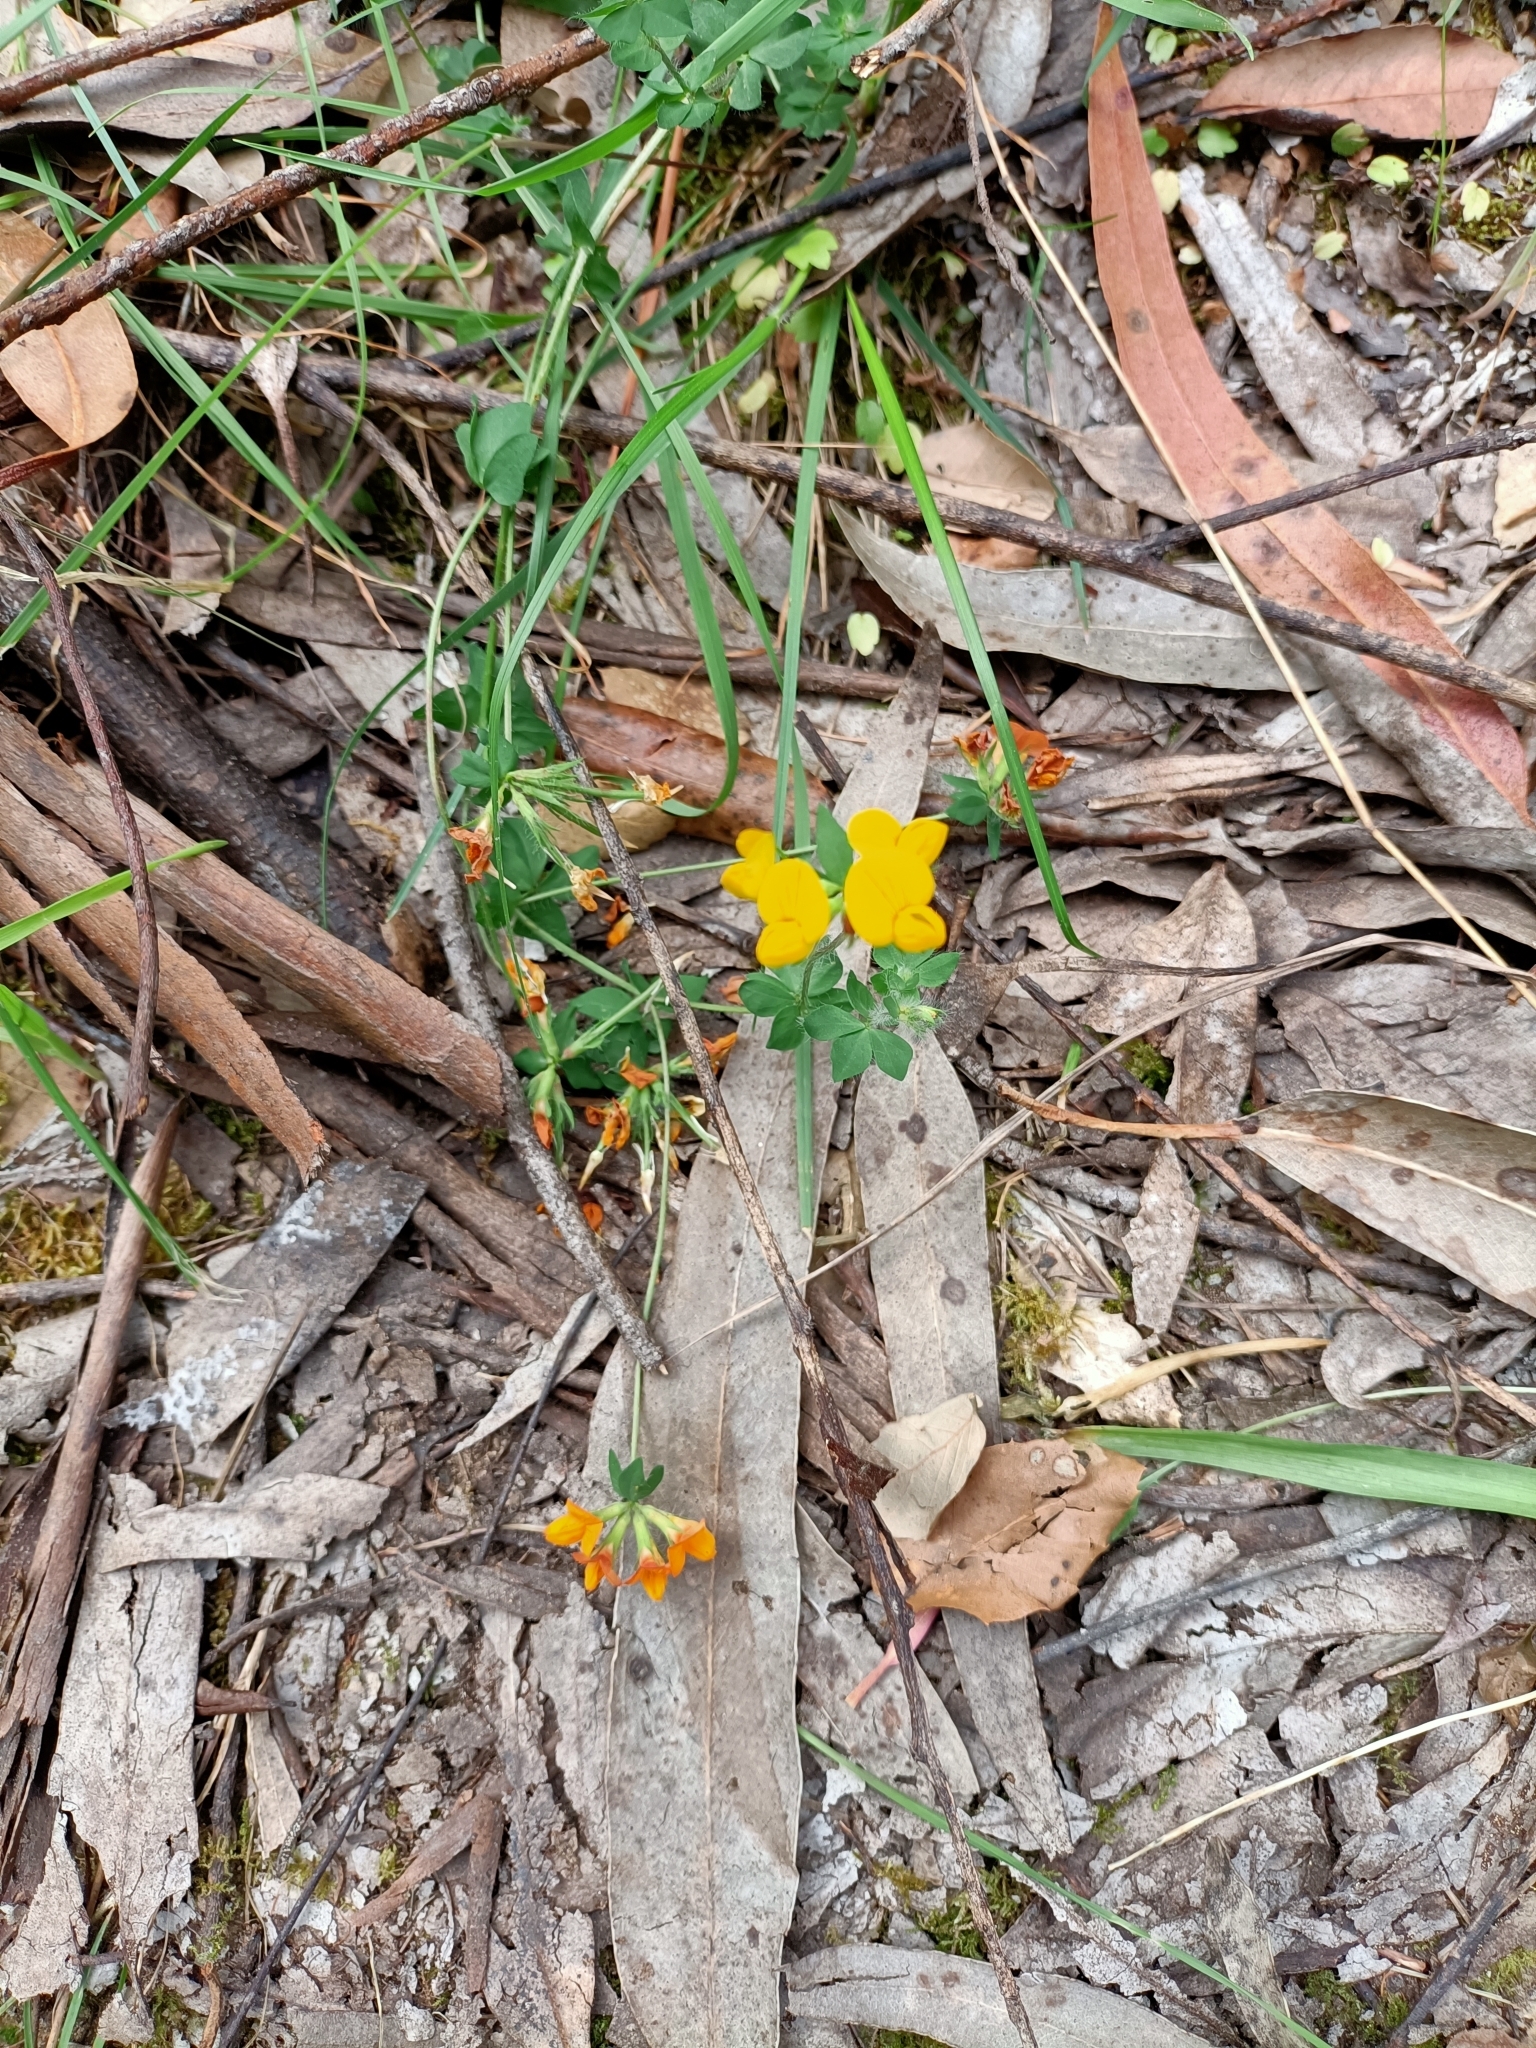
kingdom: Plantae
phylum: Tracheophyta
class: Magnoliopsida
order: Fabales
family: Fabaceae
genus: Lotus
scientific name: Lotus pedunculatus
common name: Greater birdsfoot-trefoil
